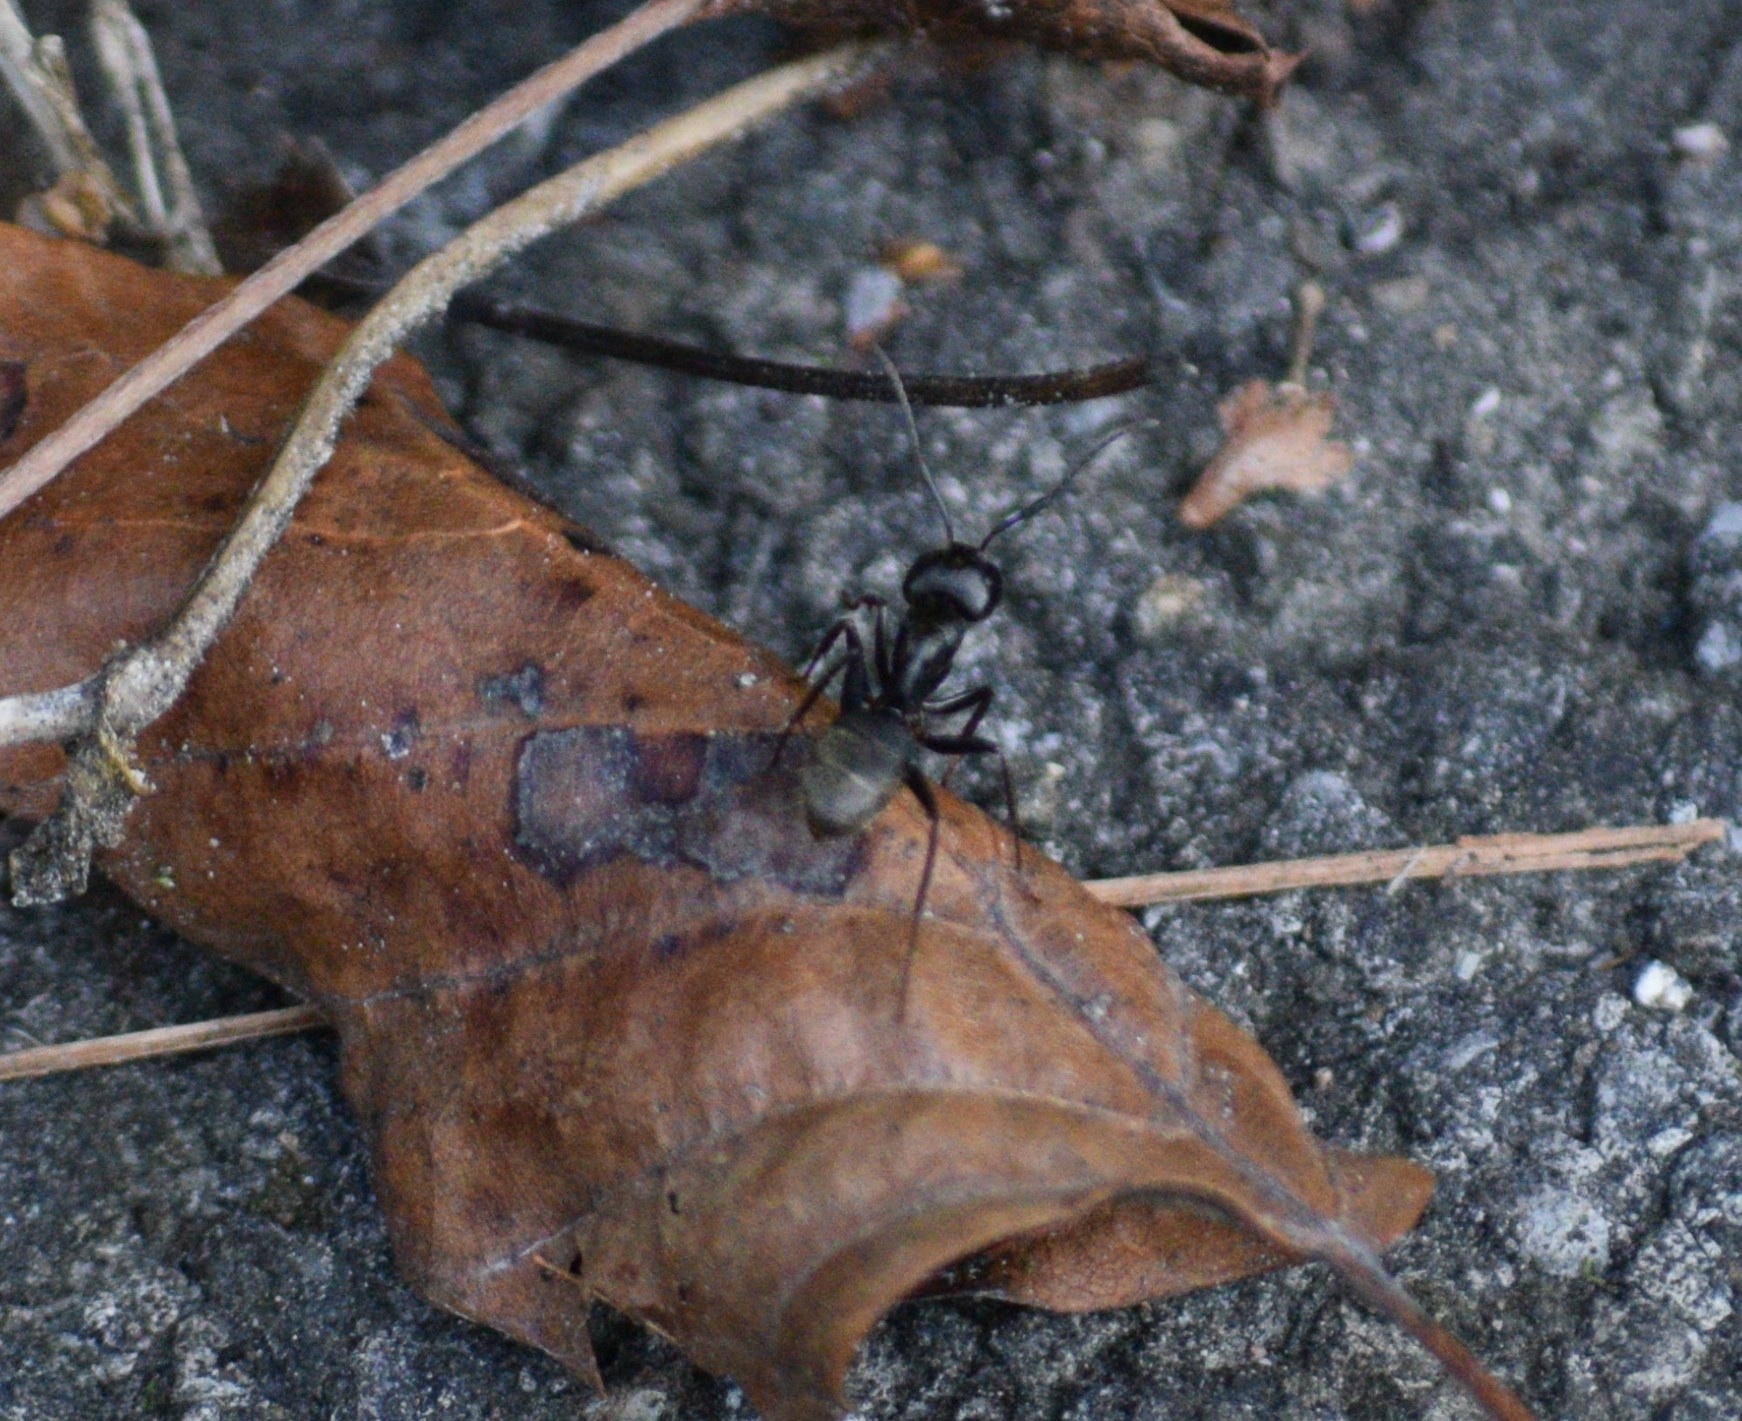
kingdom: Animalia
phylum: Arthropoda
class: Insecta
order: Hymenoptera
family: Formicidae
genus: Camponotus
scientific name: Camponotus pennsylvanicus
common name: Black carpenter ant
